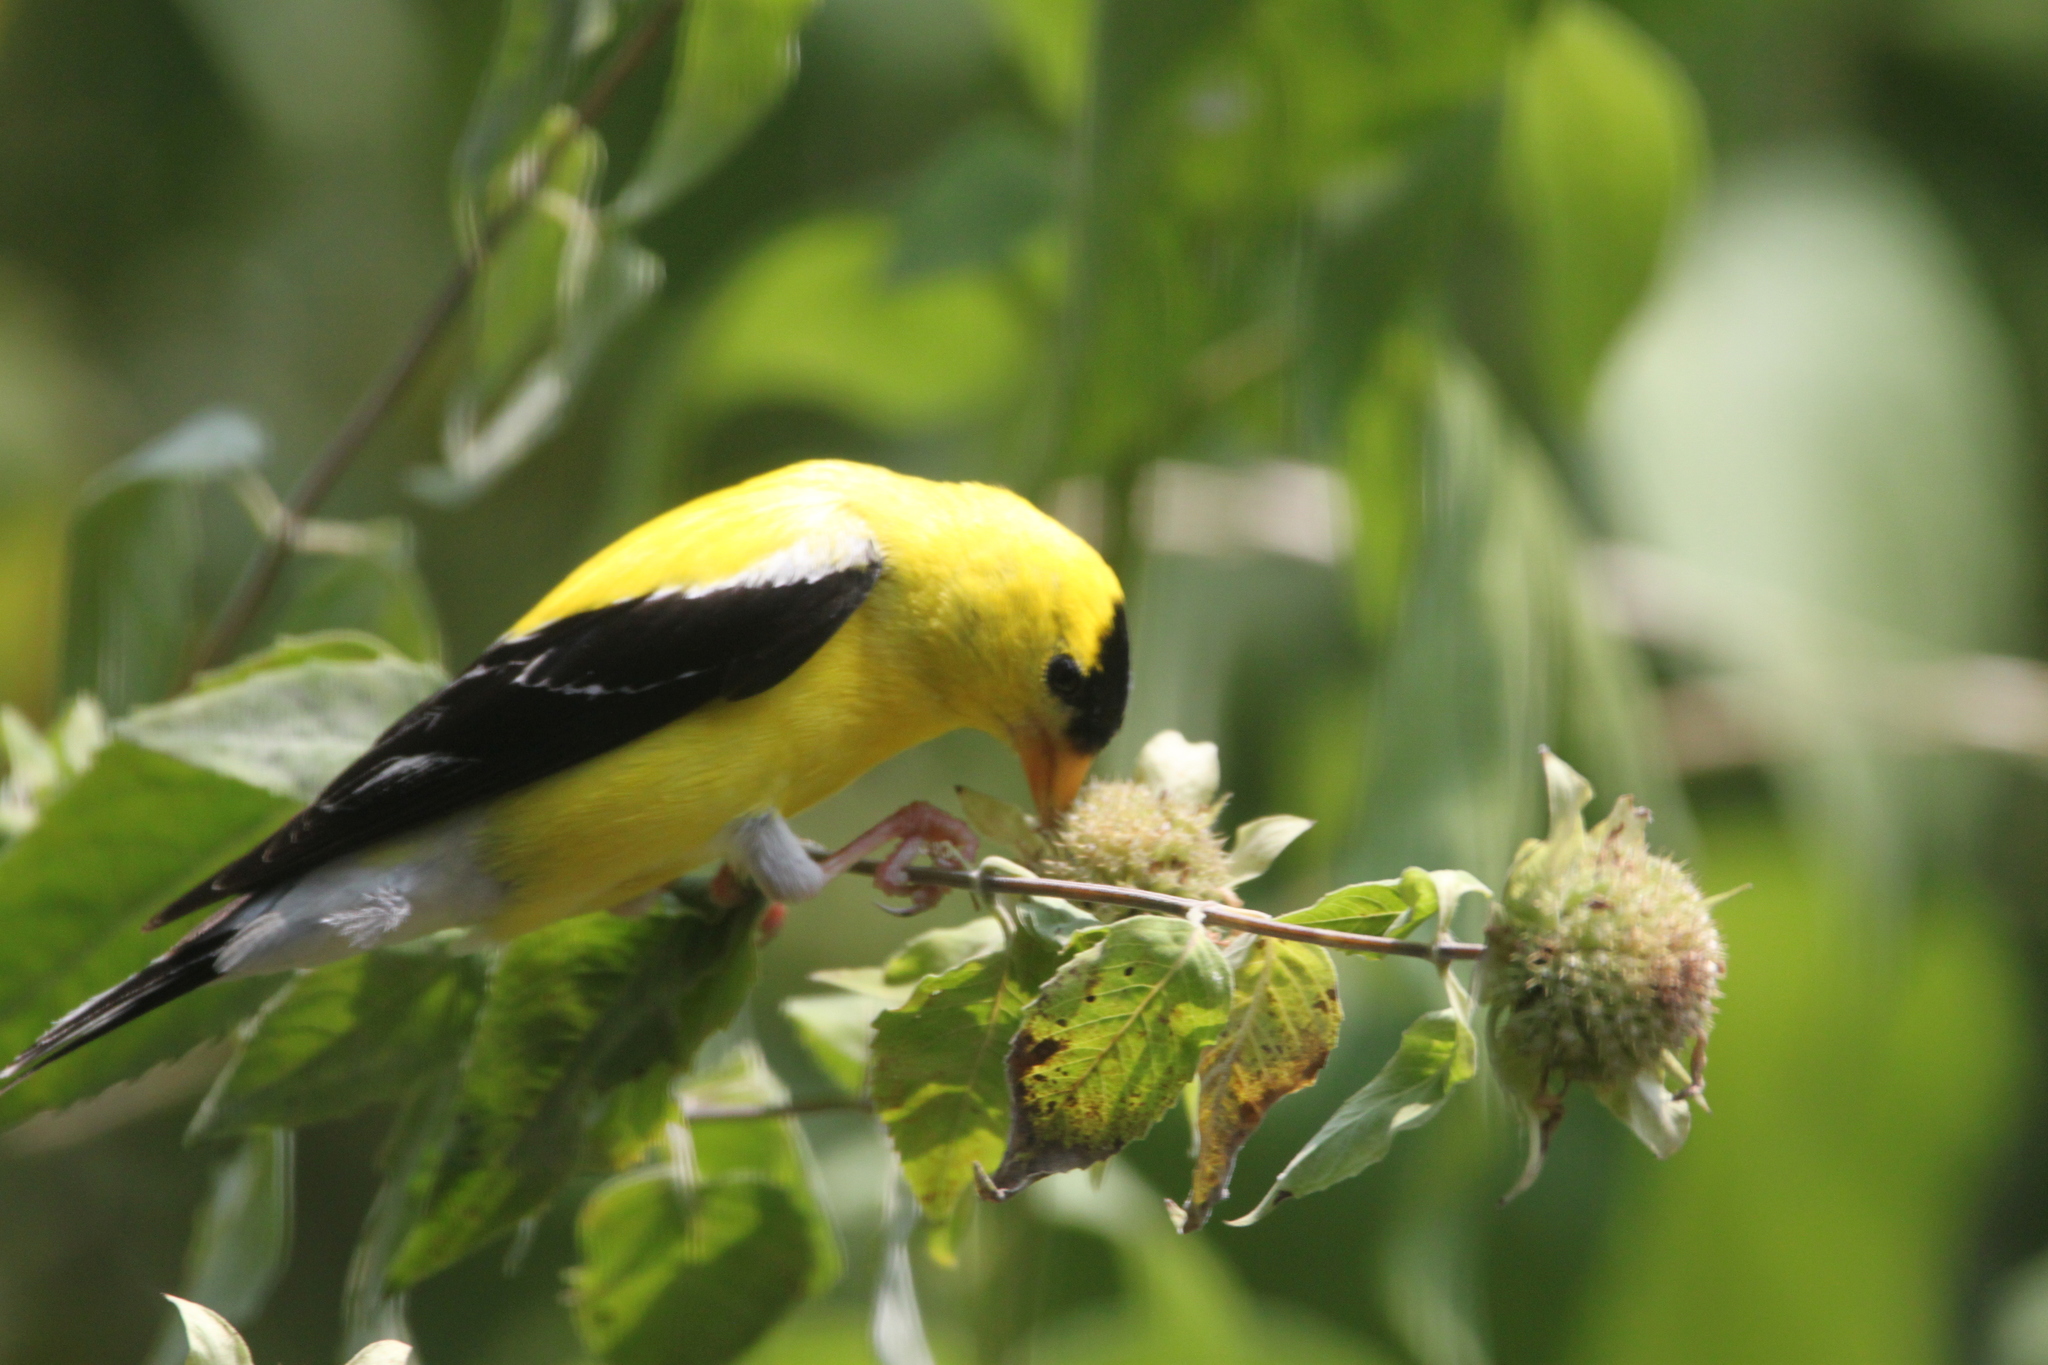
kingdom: Animalia
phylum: Chordata
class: Aves
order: Passeriformes
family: Fringillidae
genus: Spinus
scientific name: Spinus tristis
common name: American goldfinch
